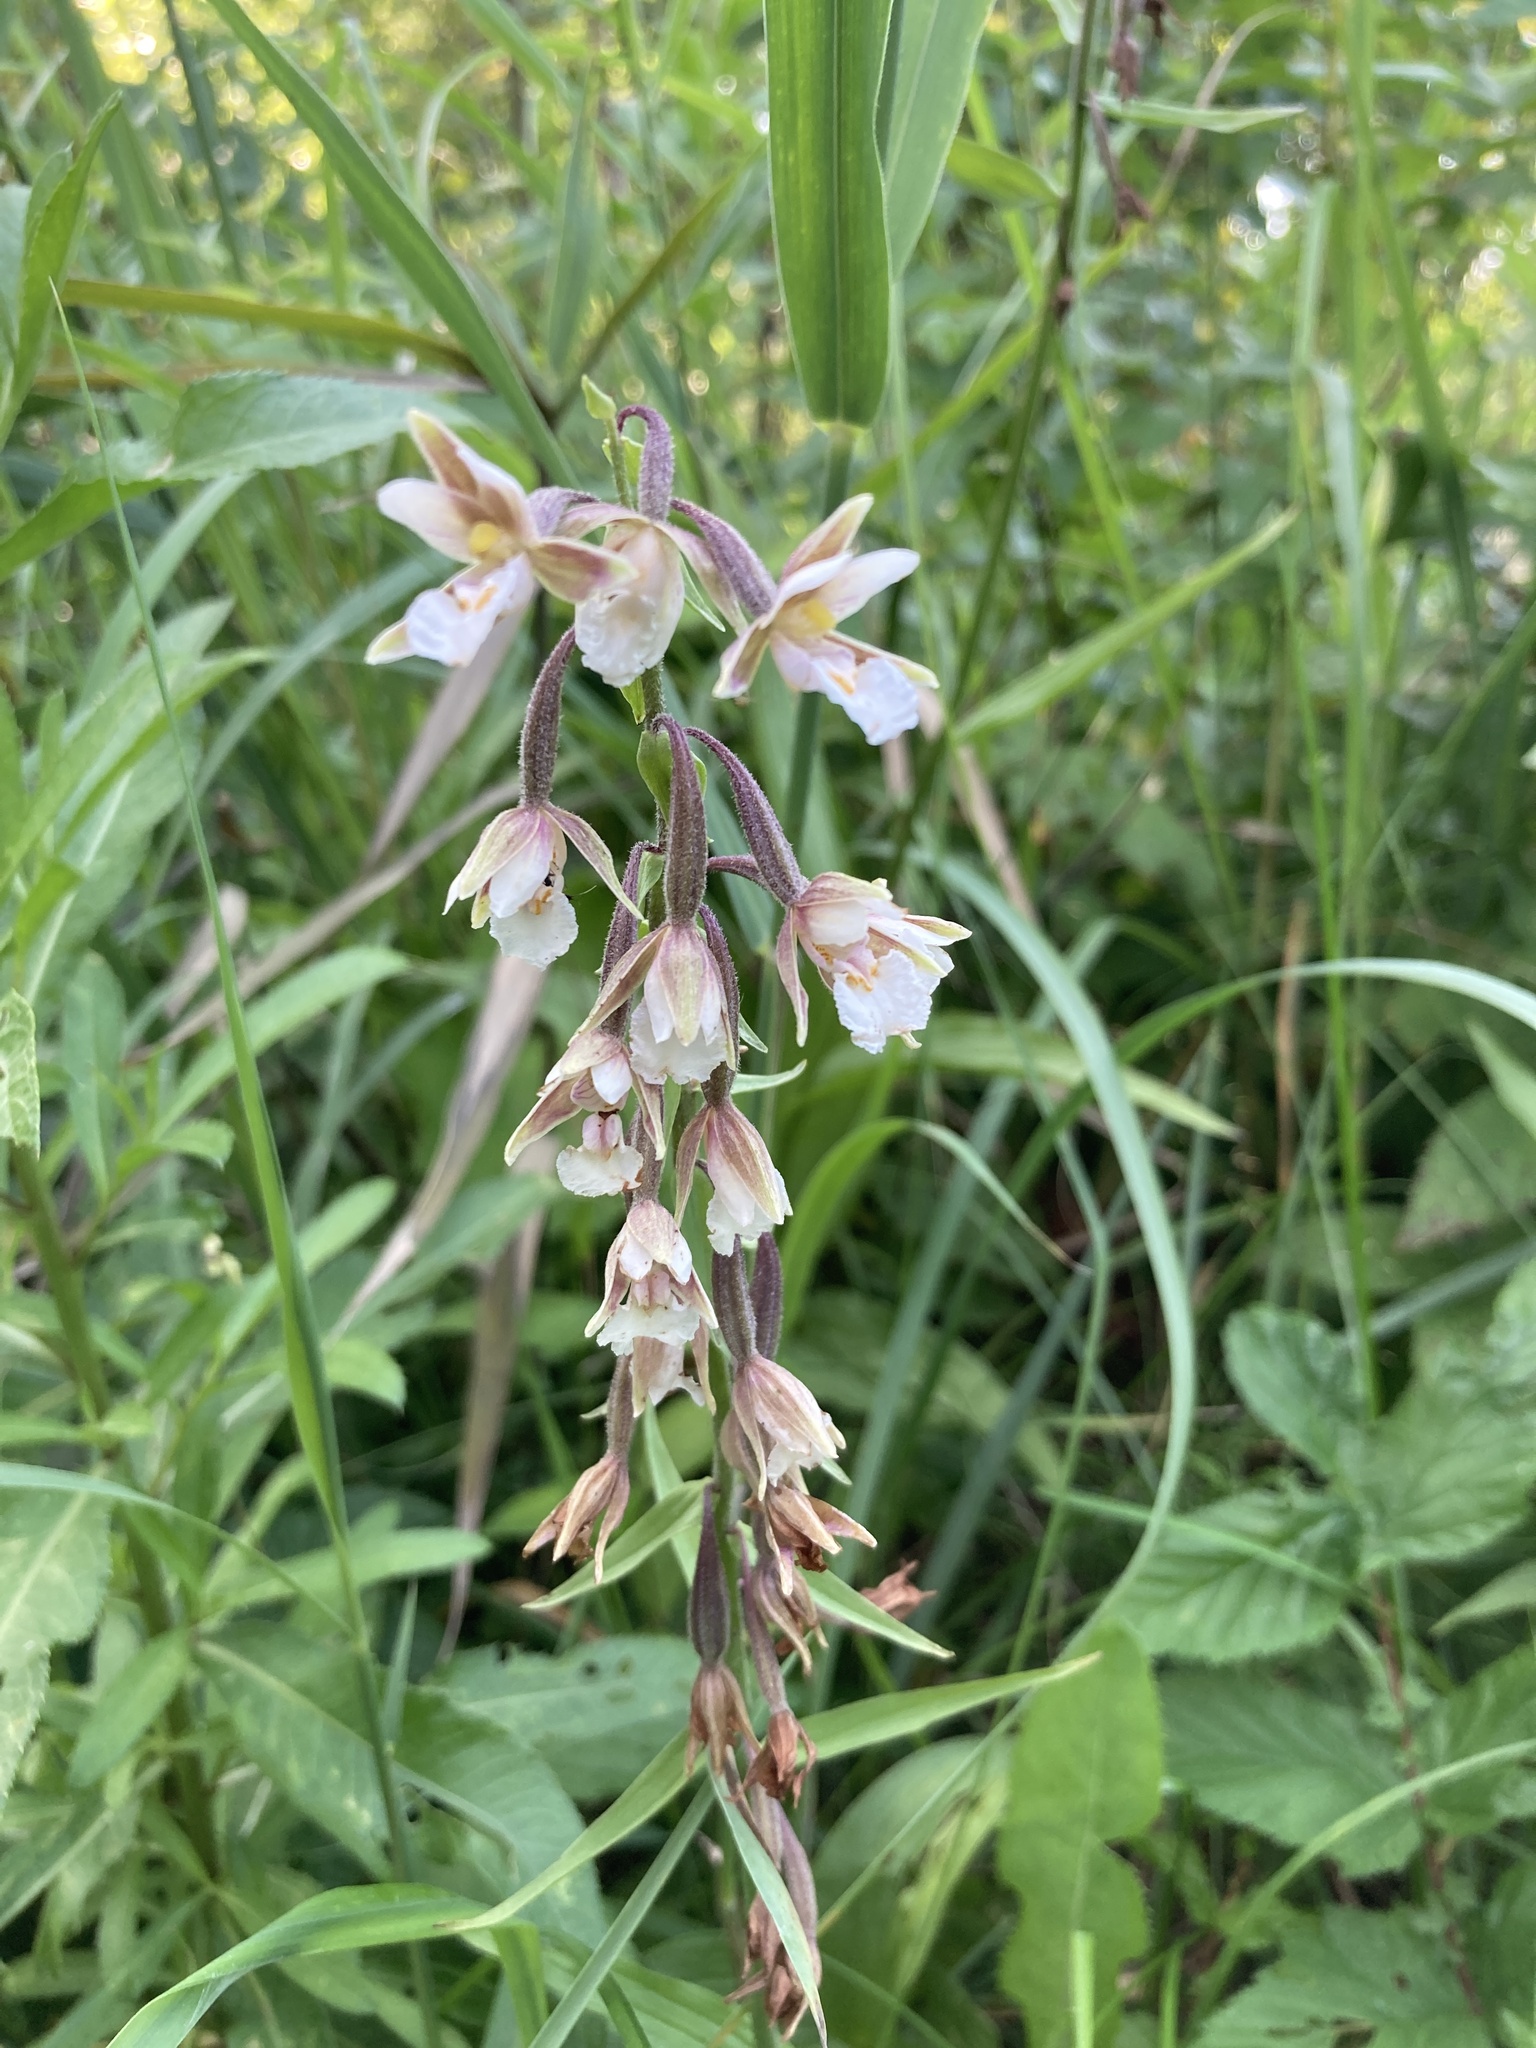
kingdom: Plantae
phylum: Tracheophyta
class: Liliopsida
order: Asparagales
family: Orchidaceae
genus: Epipactis
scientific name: Epipactis palustris
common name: Marsh helleborine
